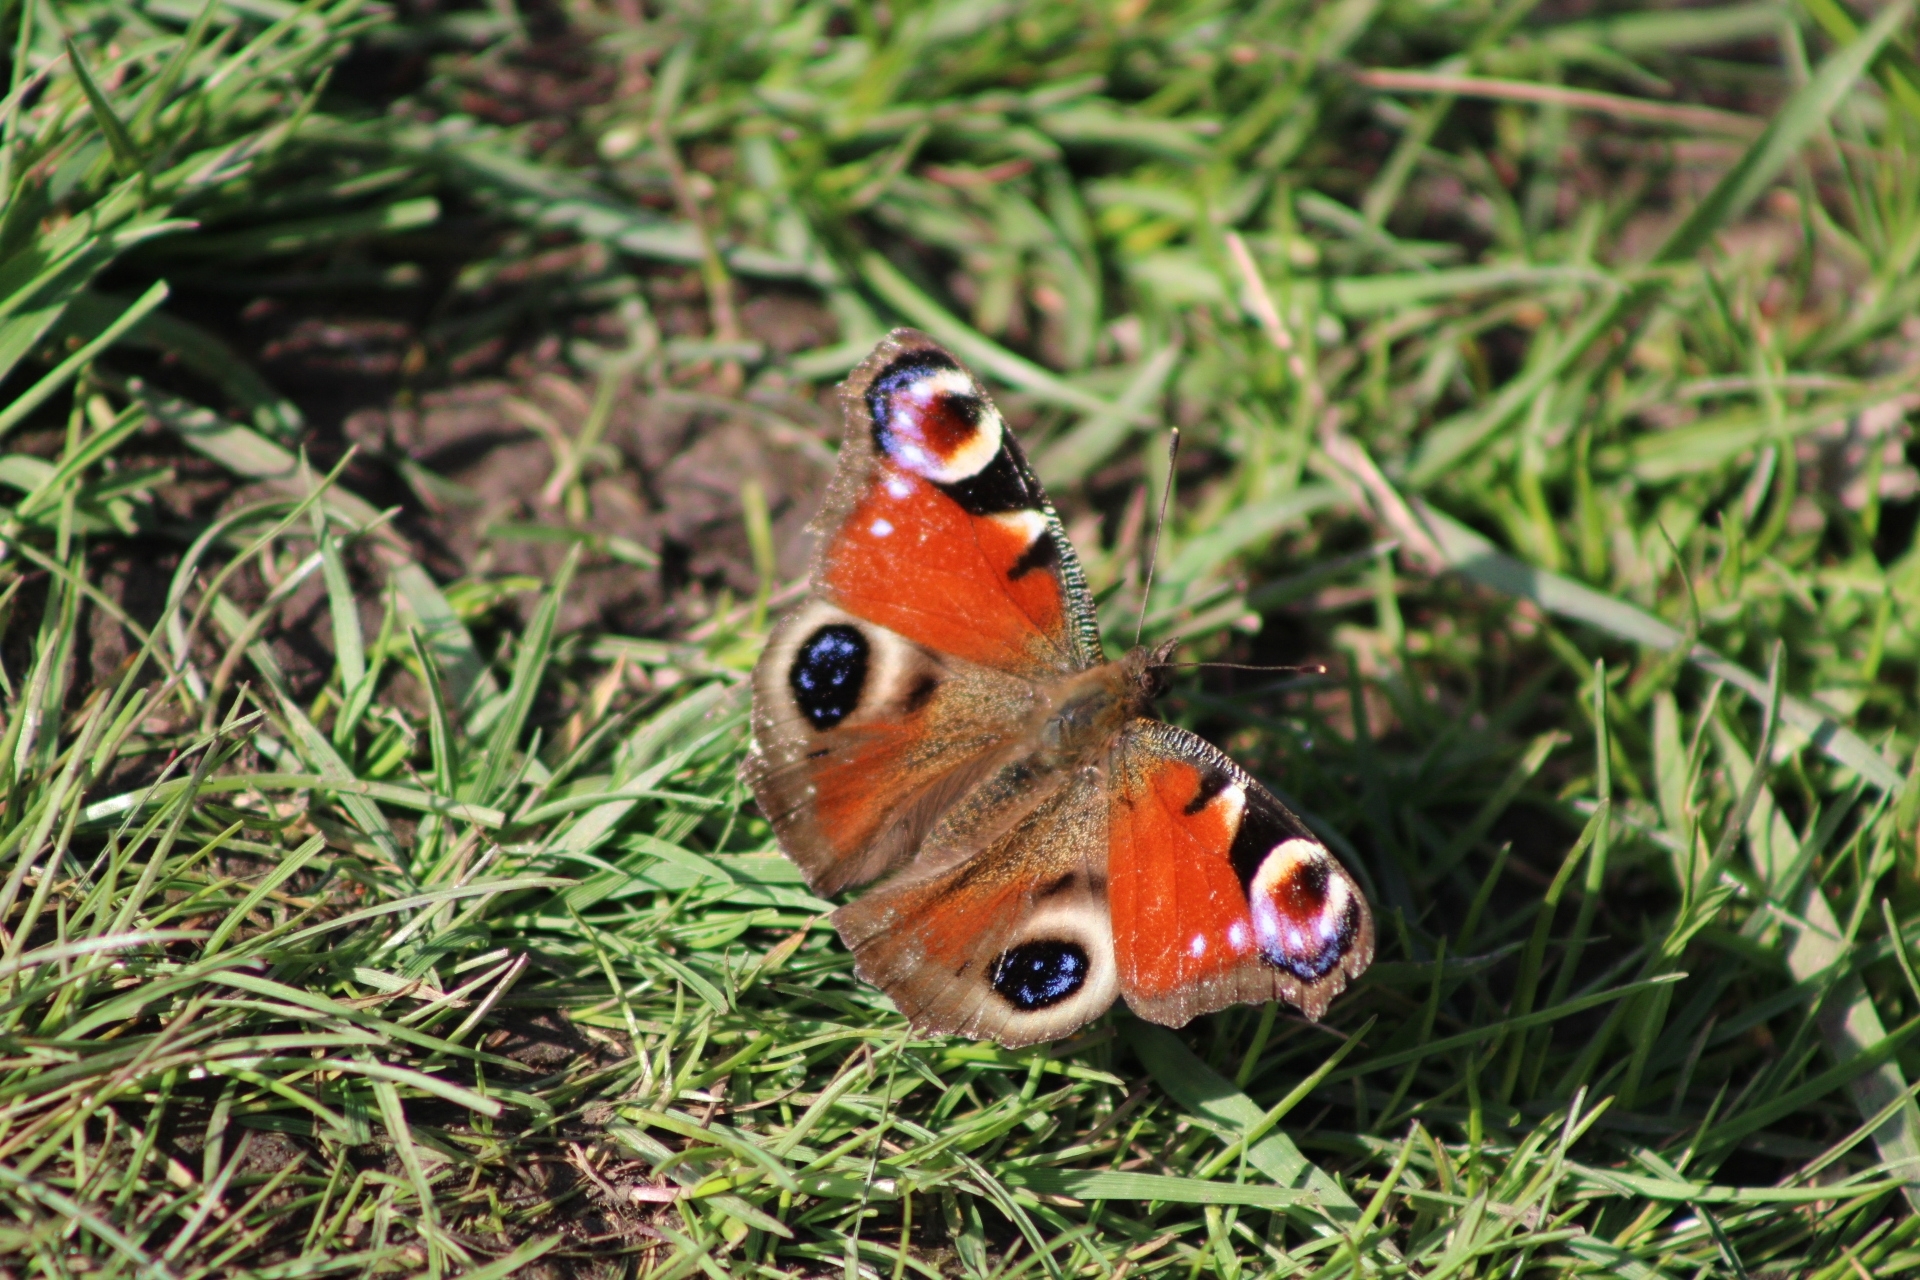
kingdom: Animalia
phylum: Arthropoda
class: Insecta
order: Lepidoptera
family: Nymphalidae
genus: Aglais
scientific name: Aglais io
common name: Peacock
